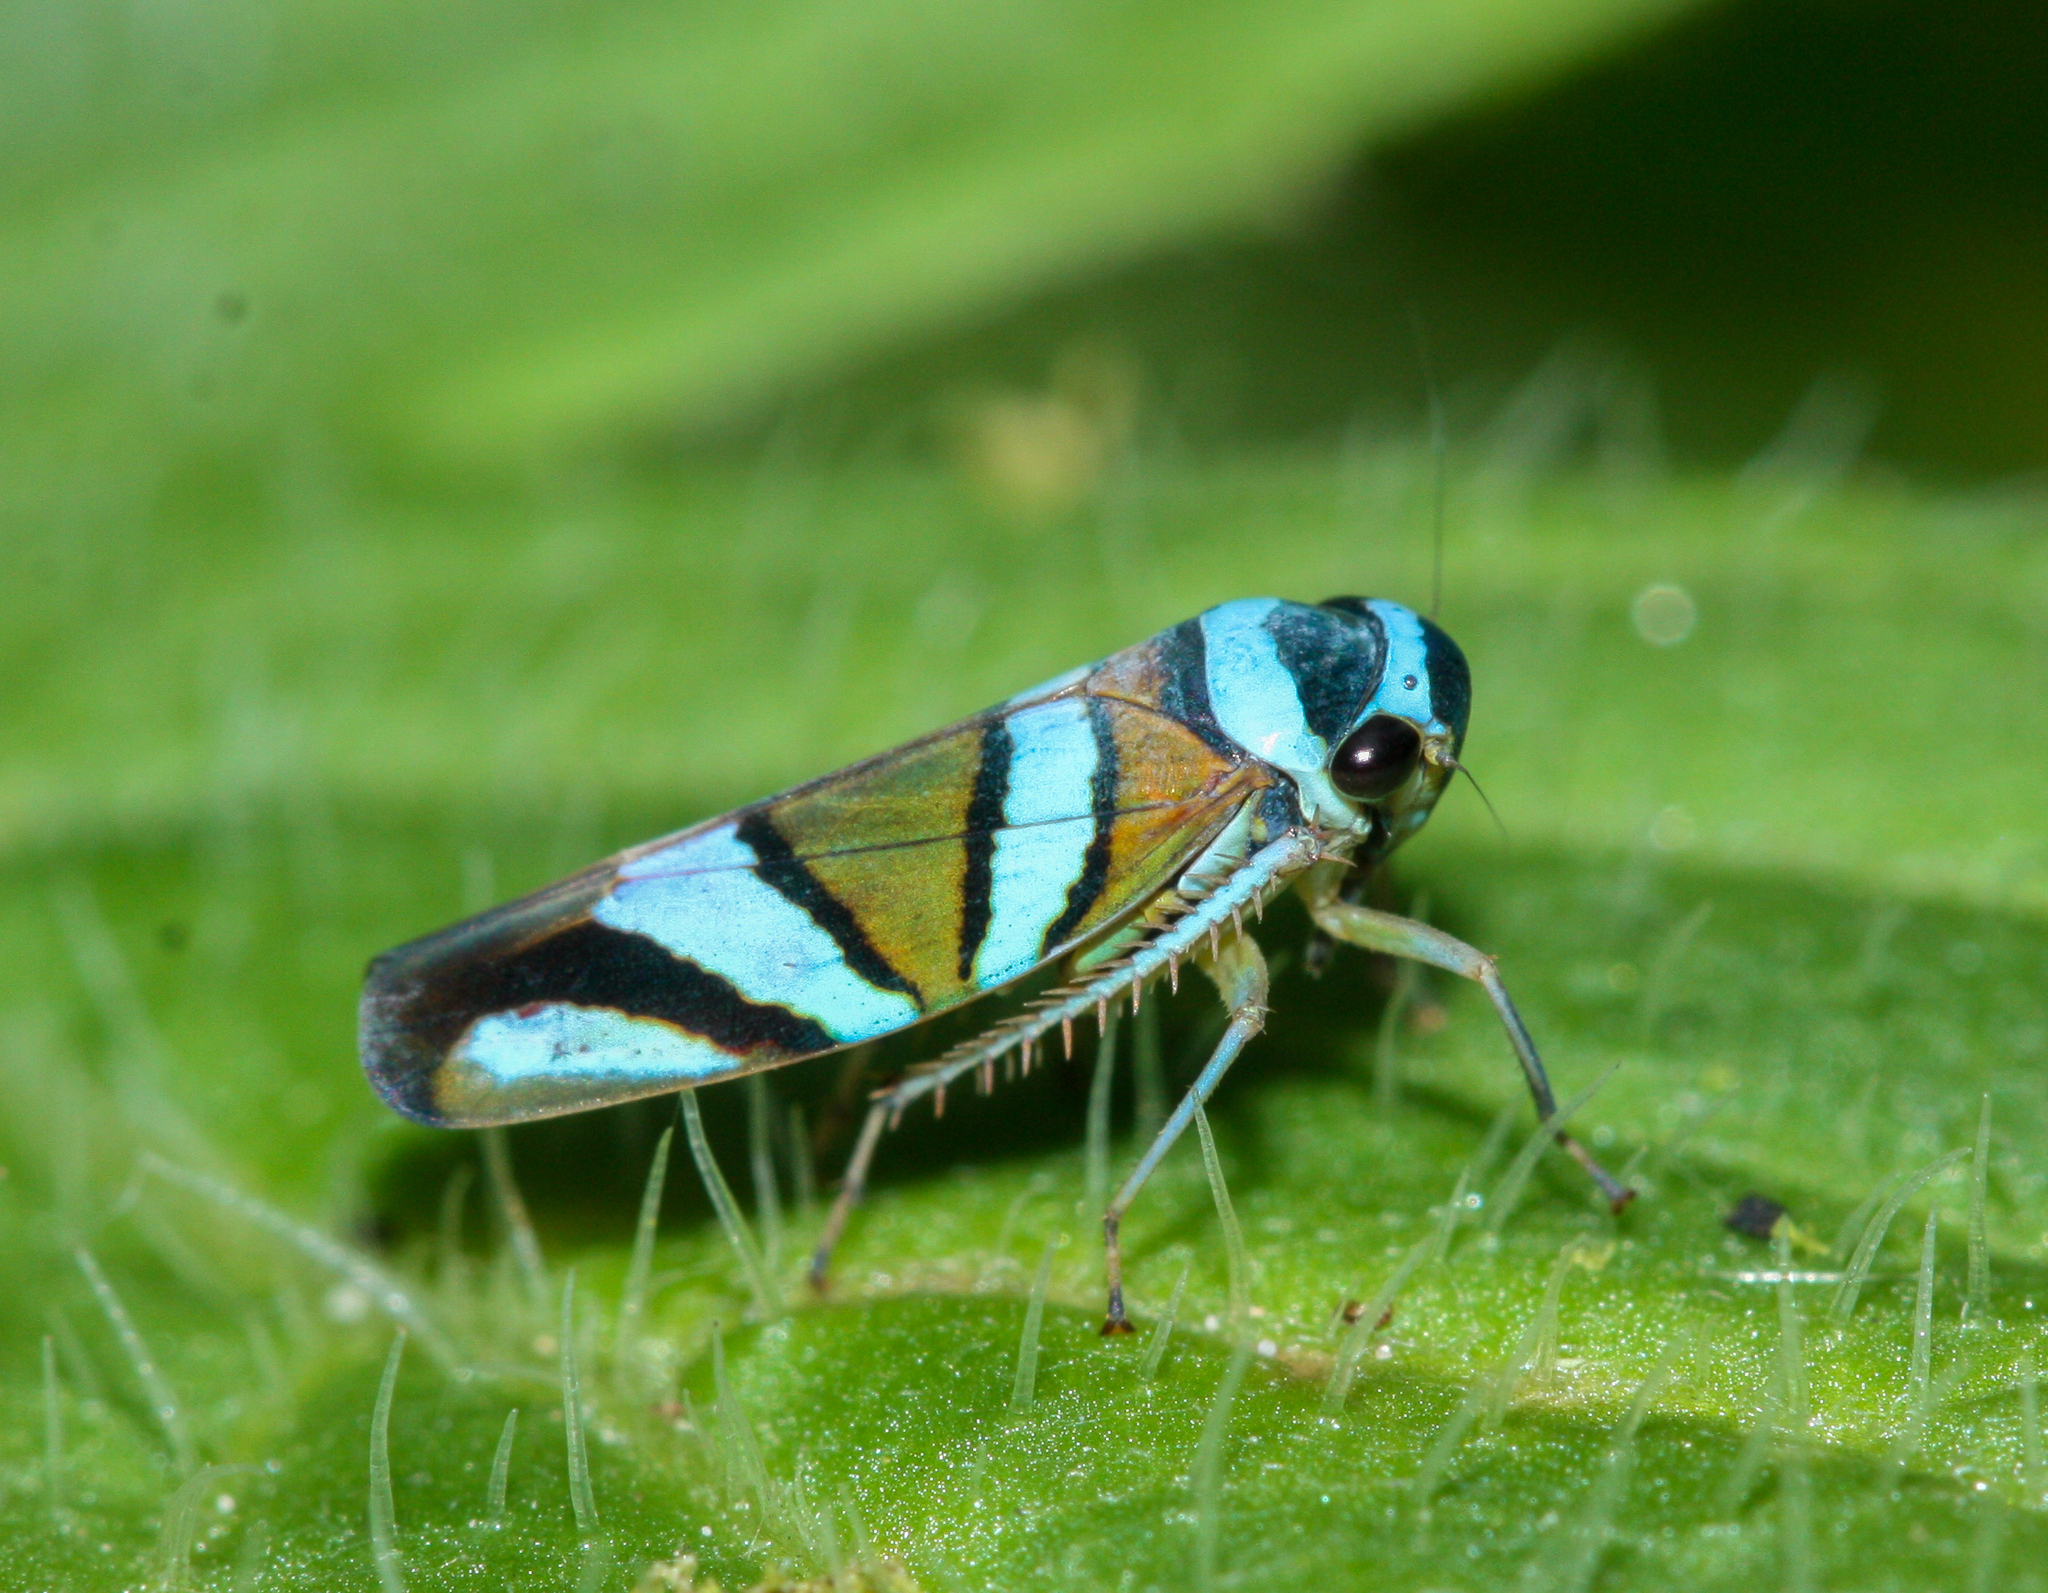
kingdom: Animalia
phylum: Arthropoda
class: Insecta
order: Hemiptera
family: Cicadellidae
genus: Macugonalia
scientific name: Macugonalia moesta
